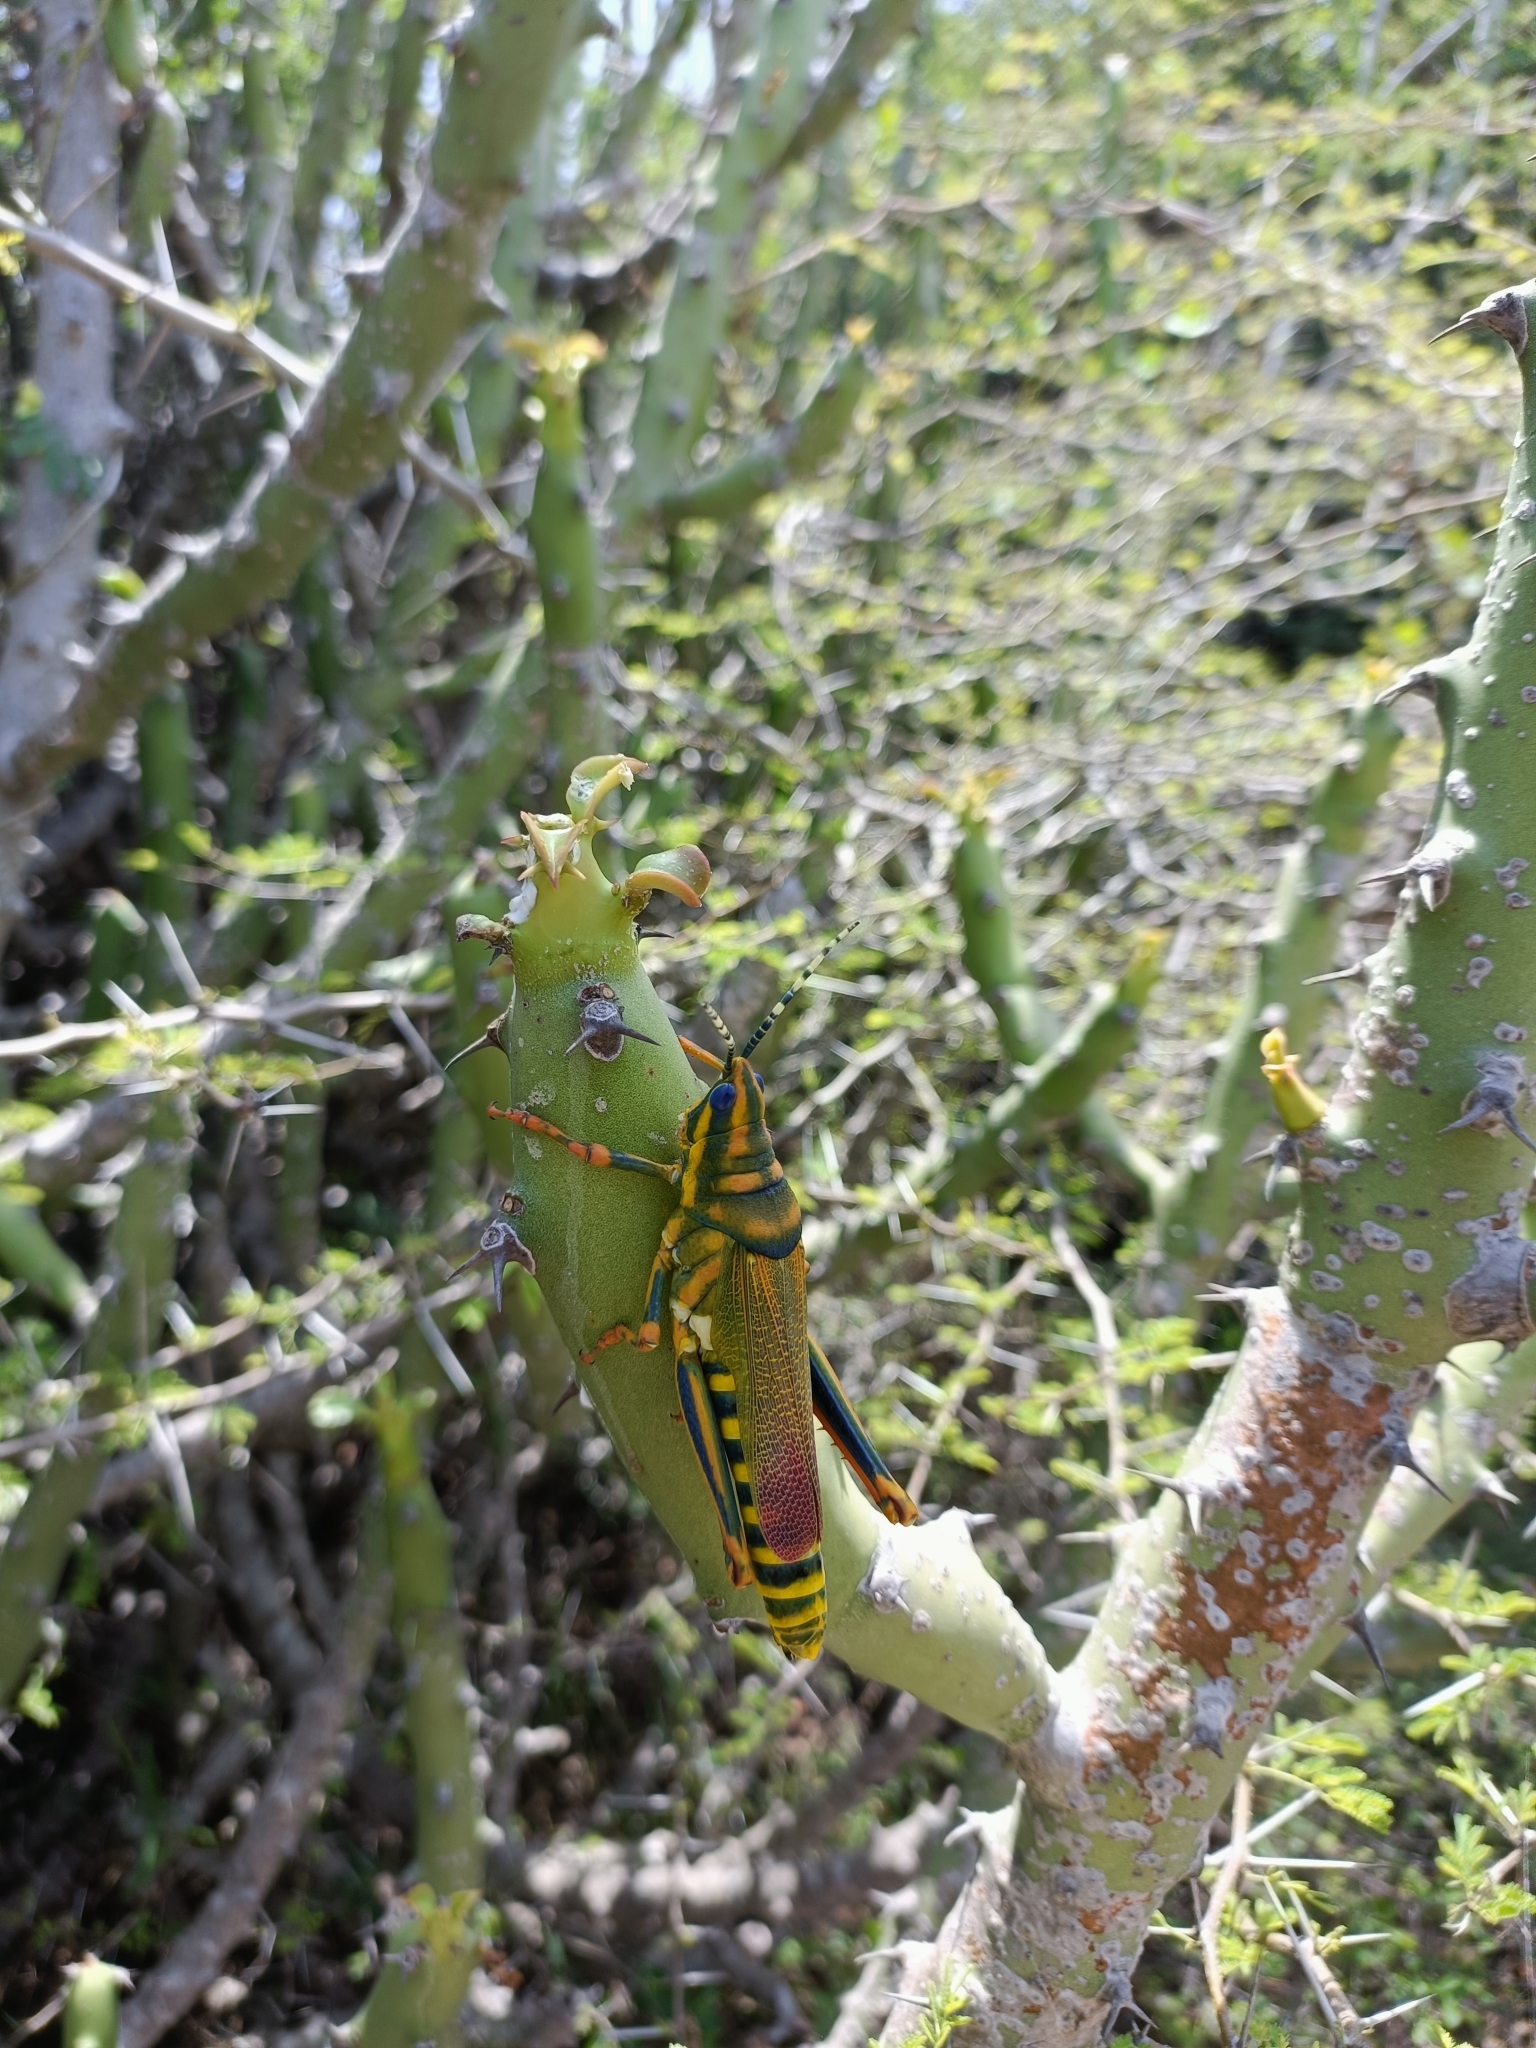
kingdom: Animalia
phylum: Arthropoda
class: Insecta
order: Orthoptera
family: Pyrgomorphidae
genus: Poekilocerus
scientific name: Poekilocerus pictus
